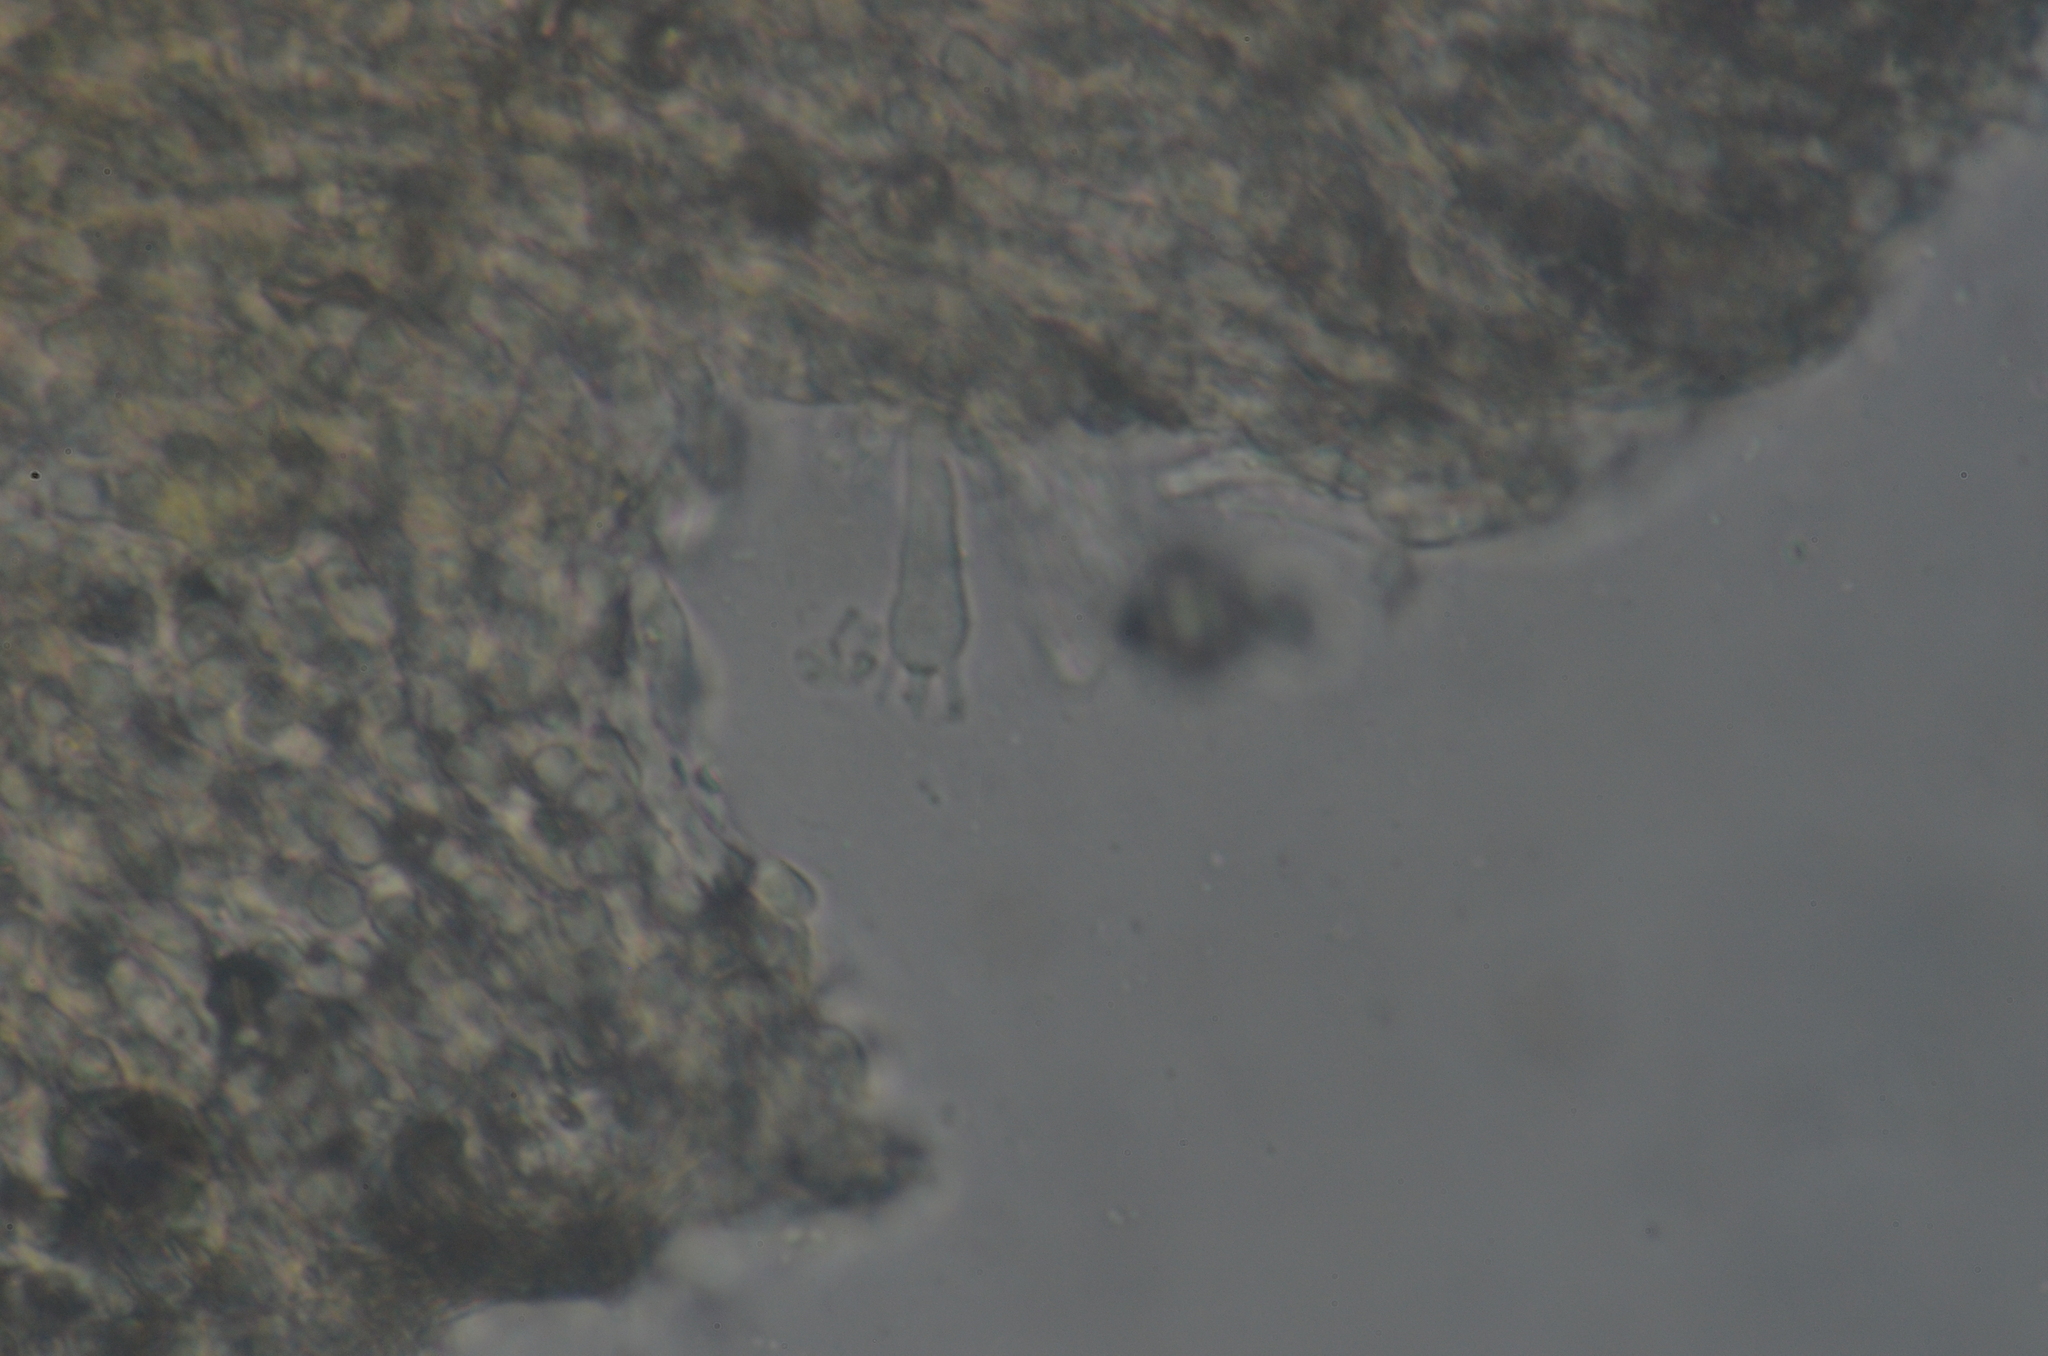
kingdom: Fungi
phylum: Basidiomycota
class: Agaricomycetes
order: Agaricales
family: Tricholomataceae
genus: Rimbachia
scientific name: Rimbachia arachnoidea
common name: Spidery mossear
